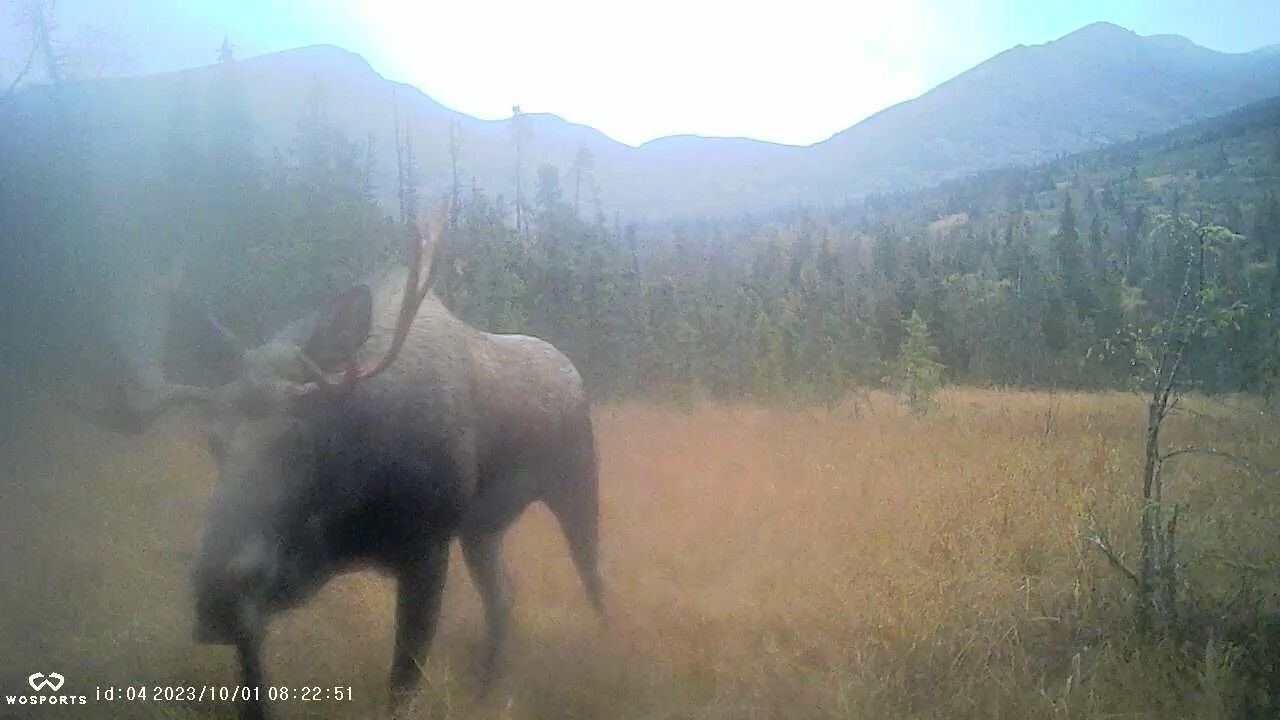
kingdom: Animalia
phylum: Chordata
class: Mammalia
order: Artiodactyla
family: Cervidae
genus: Alces
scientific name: Alces alces
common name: Moose
